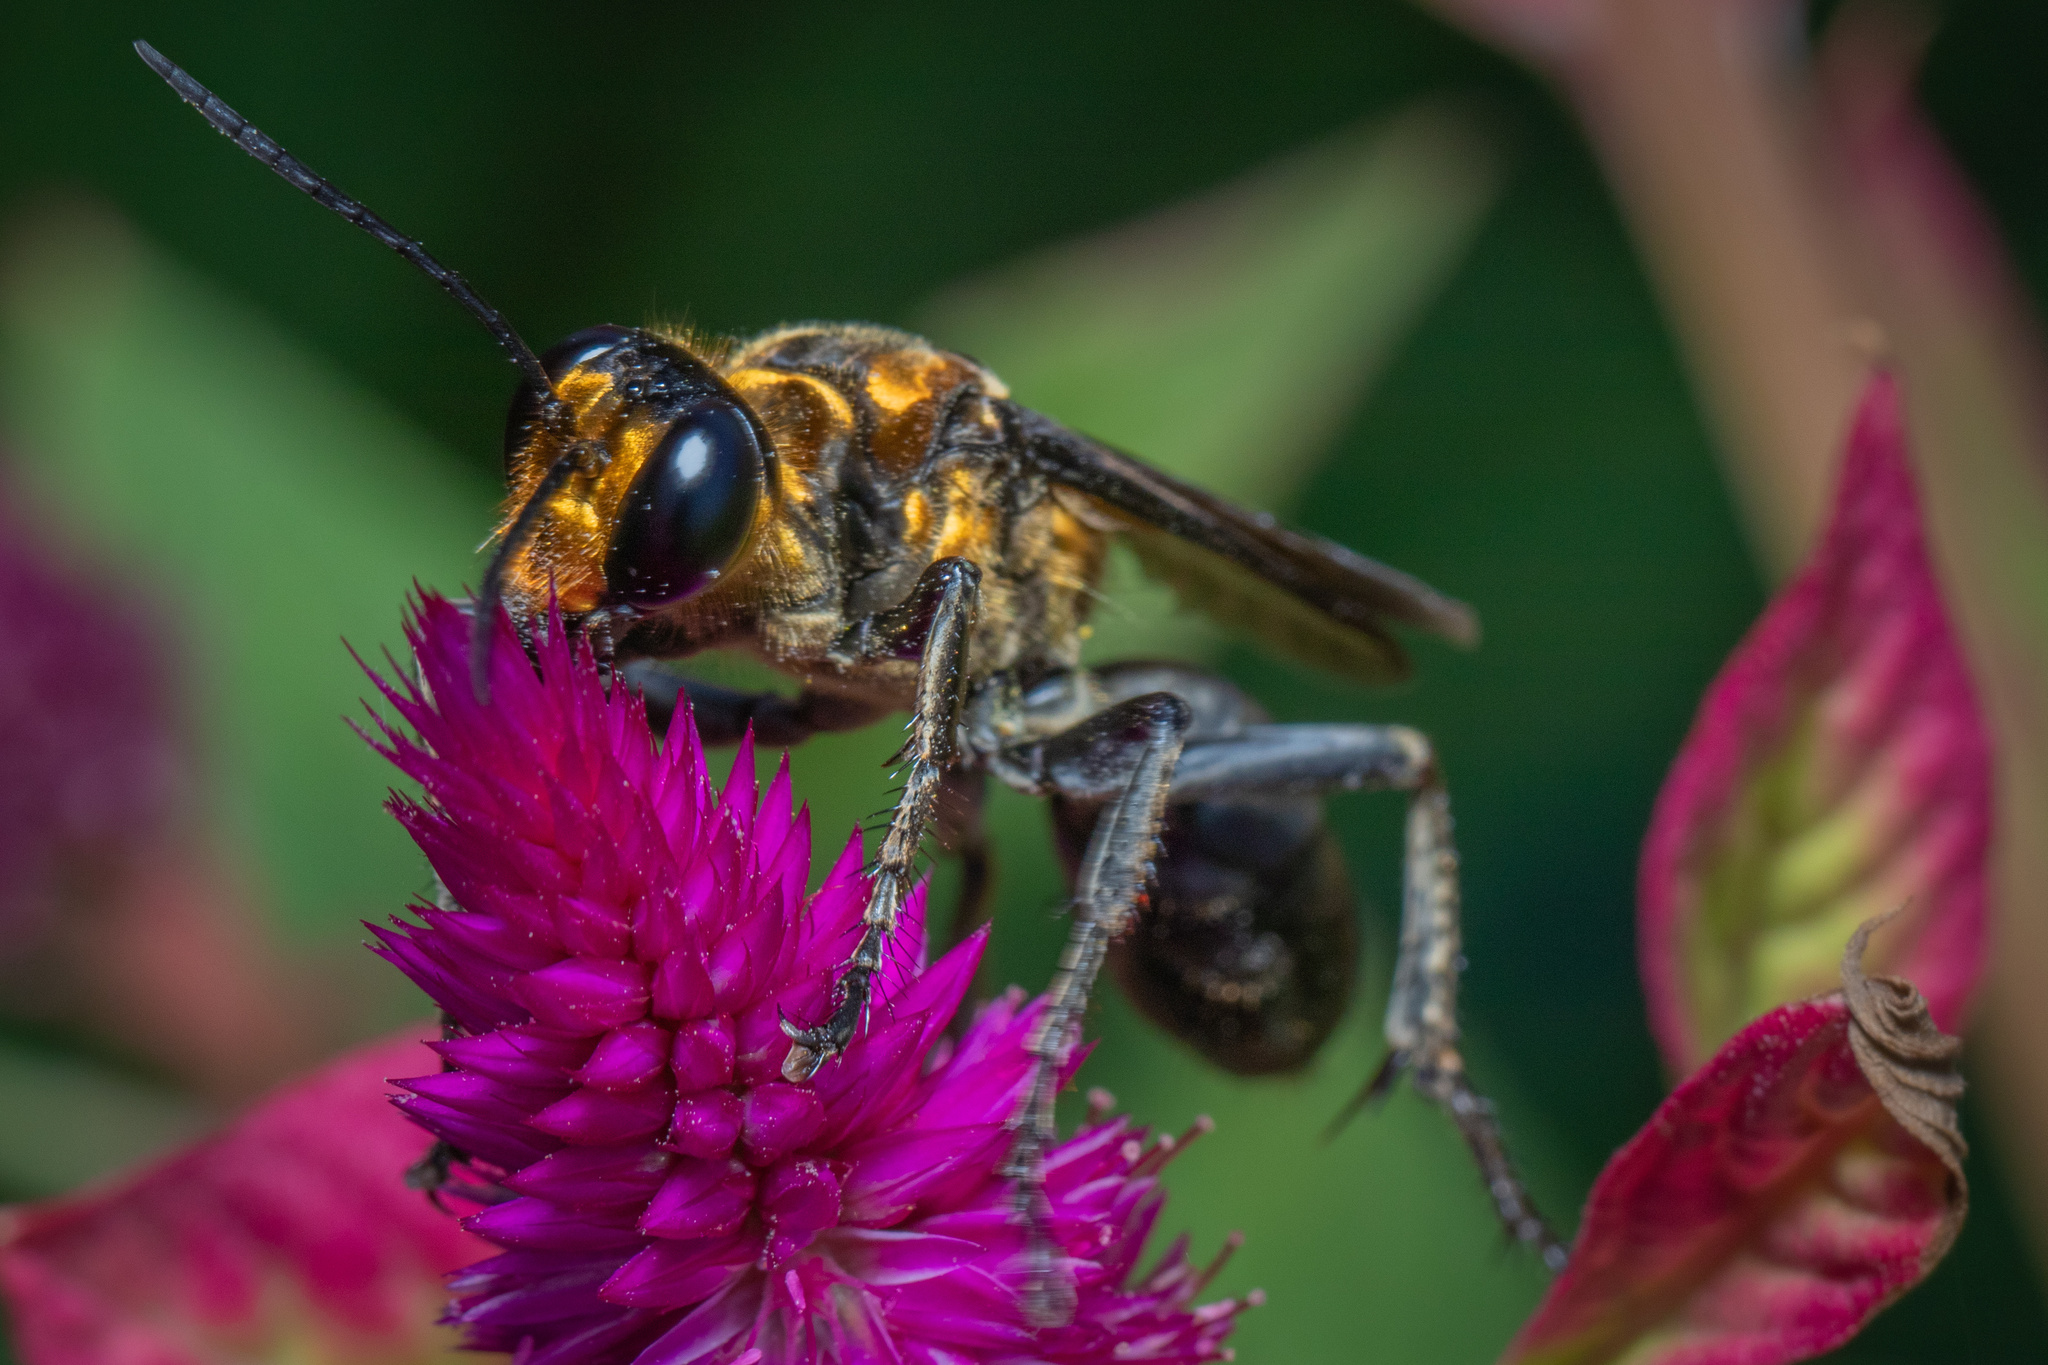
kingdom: Animalia
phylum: Arthropoda
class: Insecta
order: Hymenoptera
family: Sphecidae
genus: Sphex
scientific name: Sphex habenus
